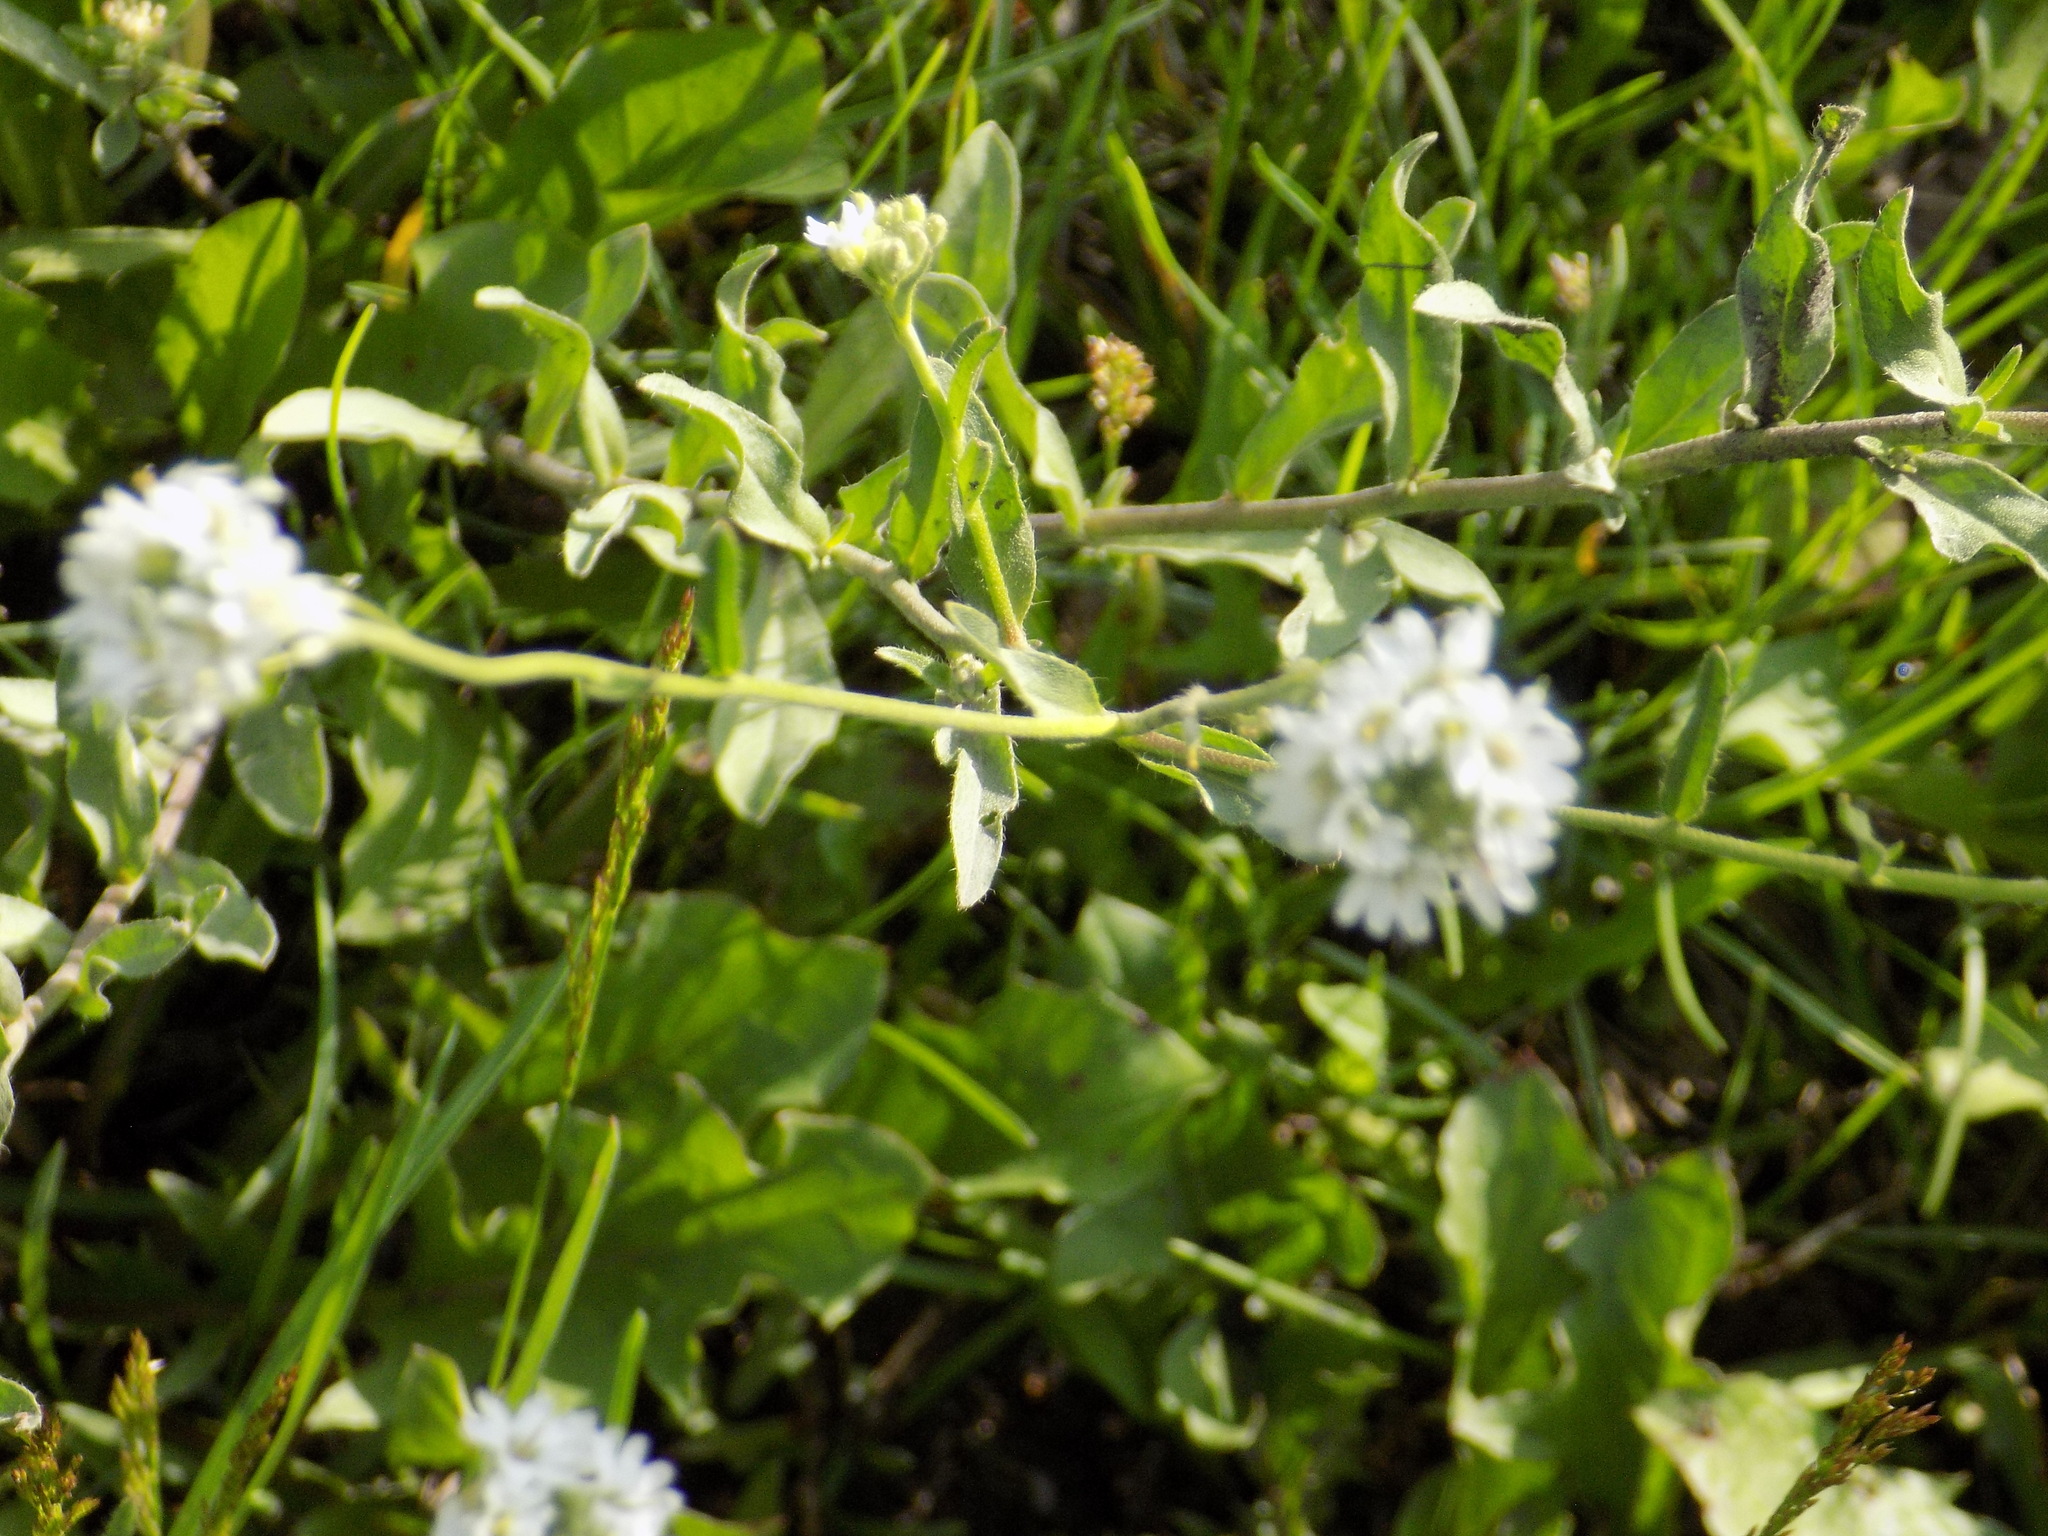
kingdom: Plantae
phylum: Tracheophyta
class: Magnoliopsida
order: Brassicales
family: Brassicaceae
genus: Berteroa
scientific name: Berteroa incana
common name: Hoary alison
